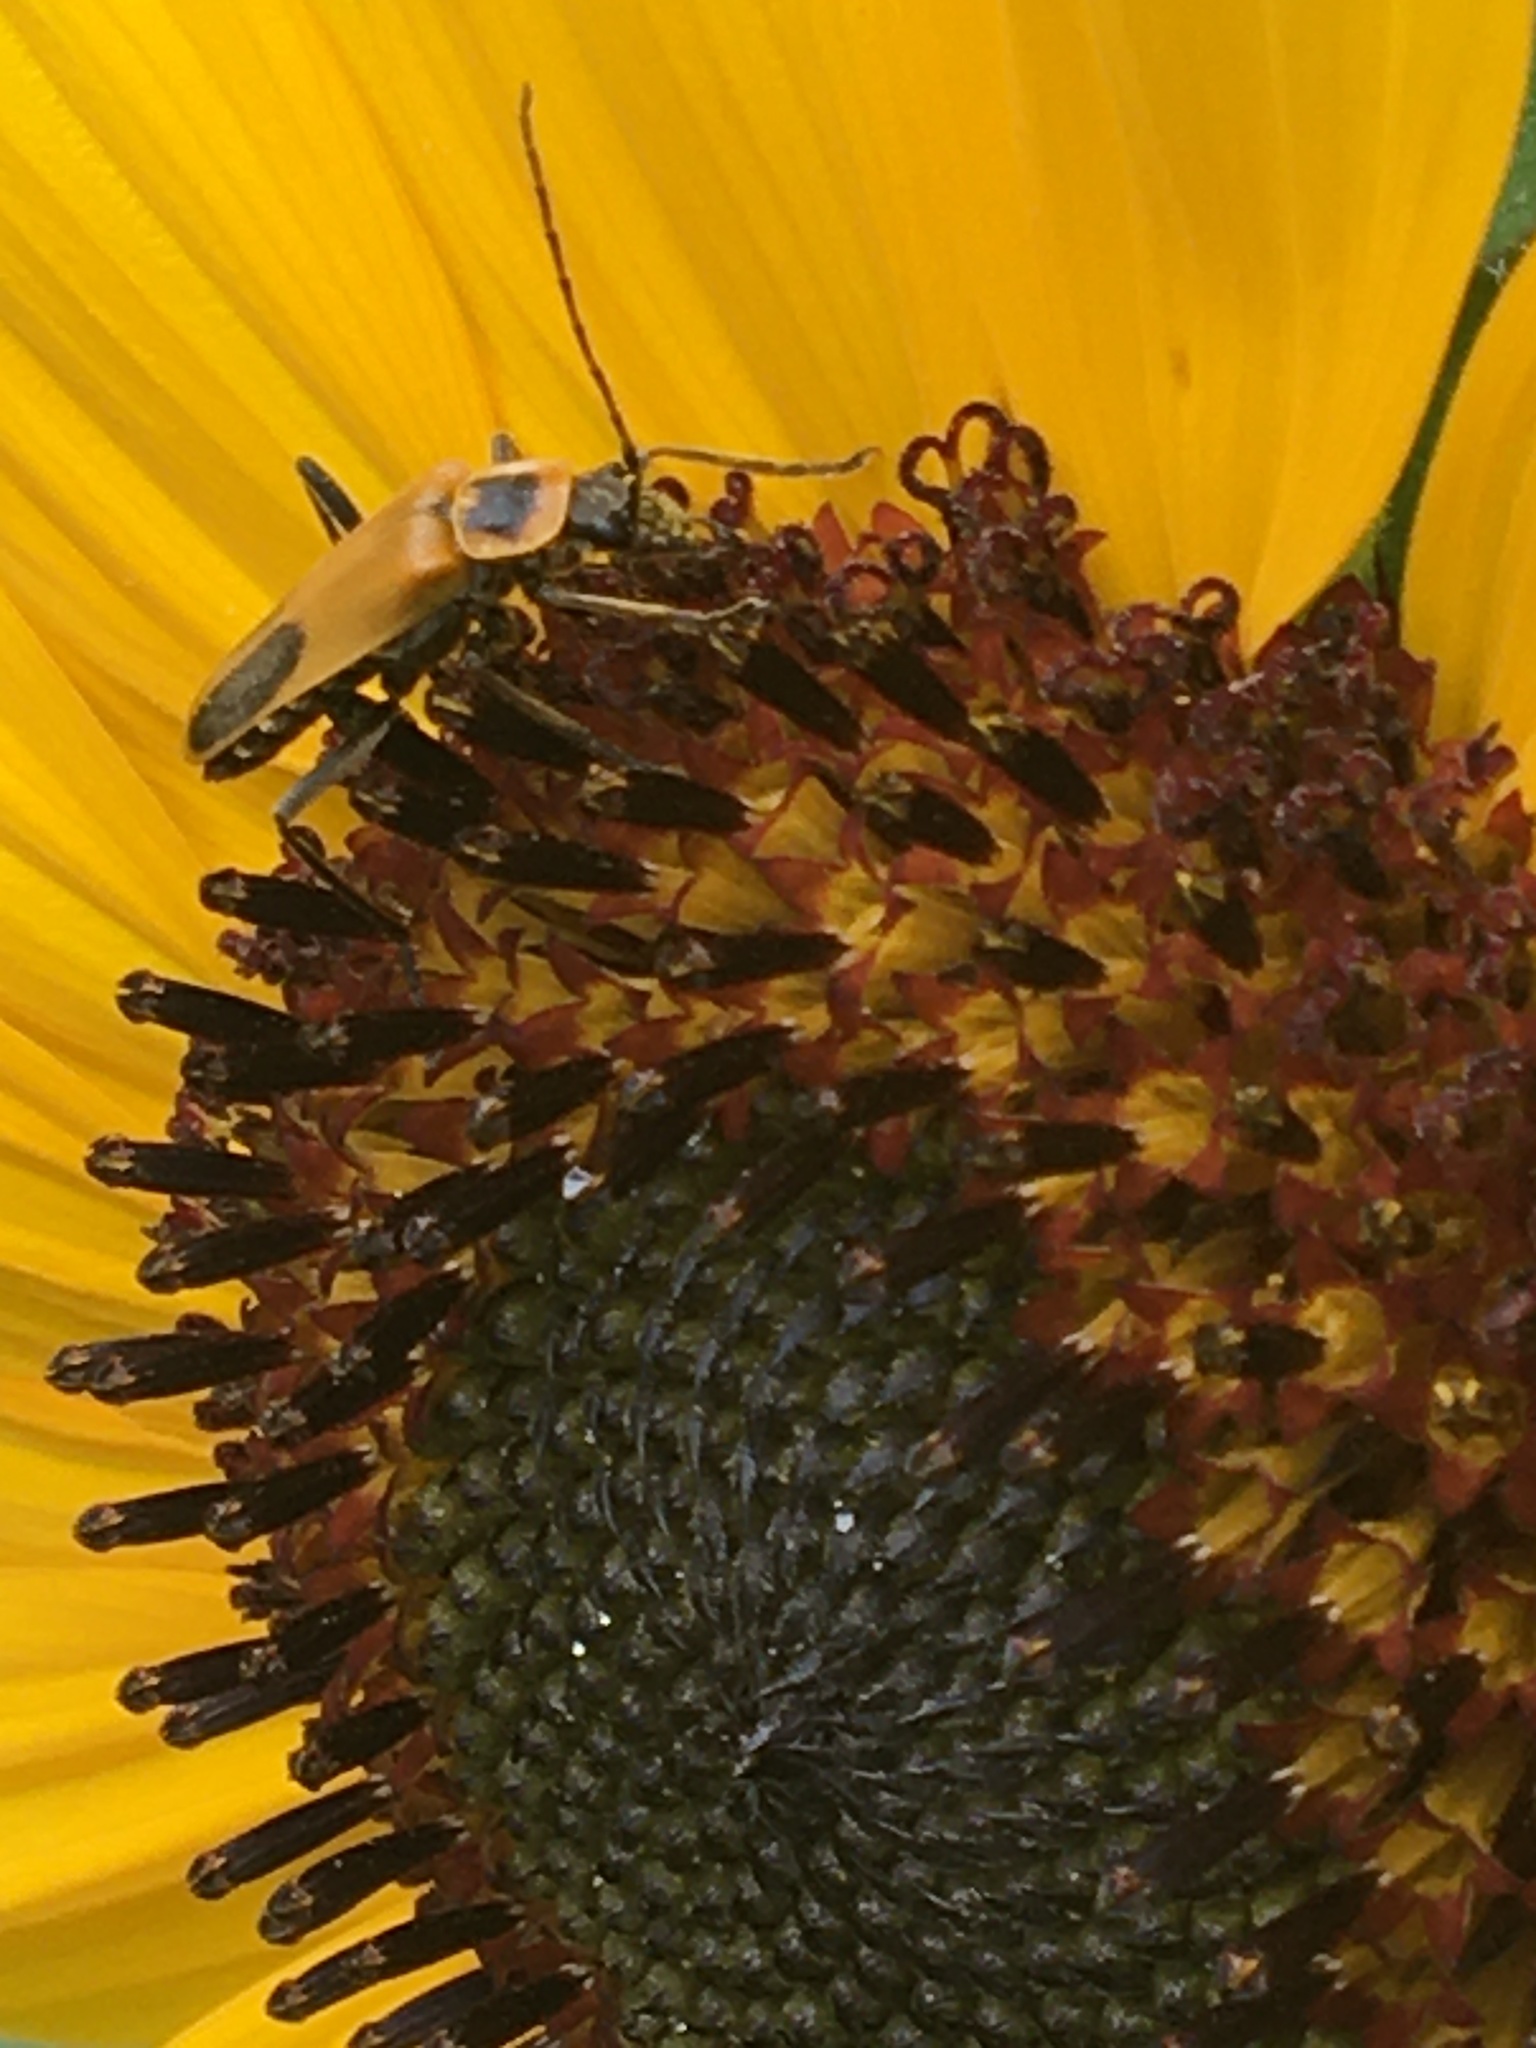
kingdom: Animalia
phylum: Arthropoda
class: Insecta
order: Coleoptera
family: Cantharidae
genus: Chauliognathus
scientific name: Chauliognathus pensylvanicus
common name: Goldenrod soldier beetle
